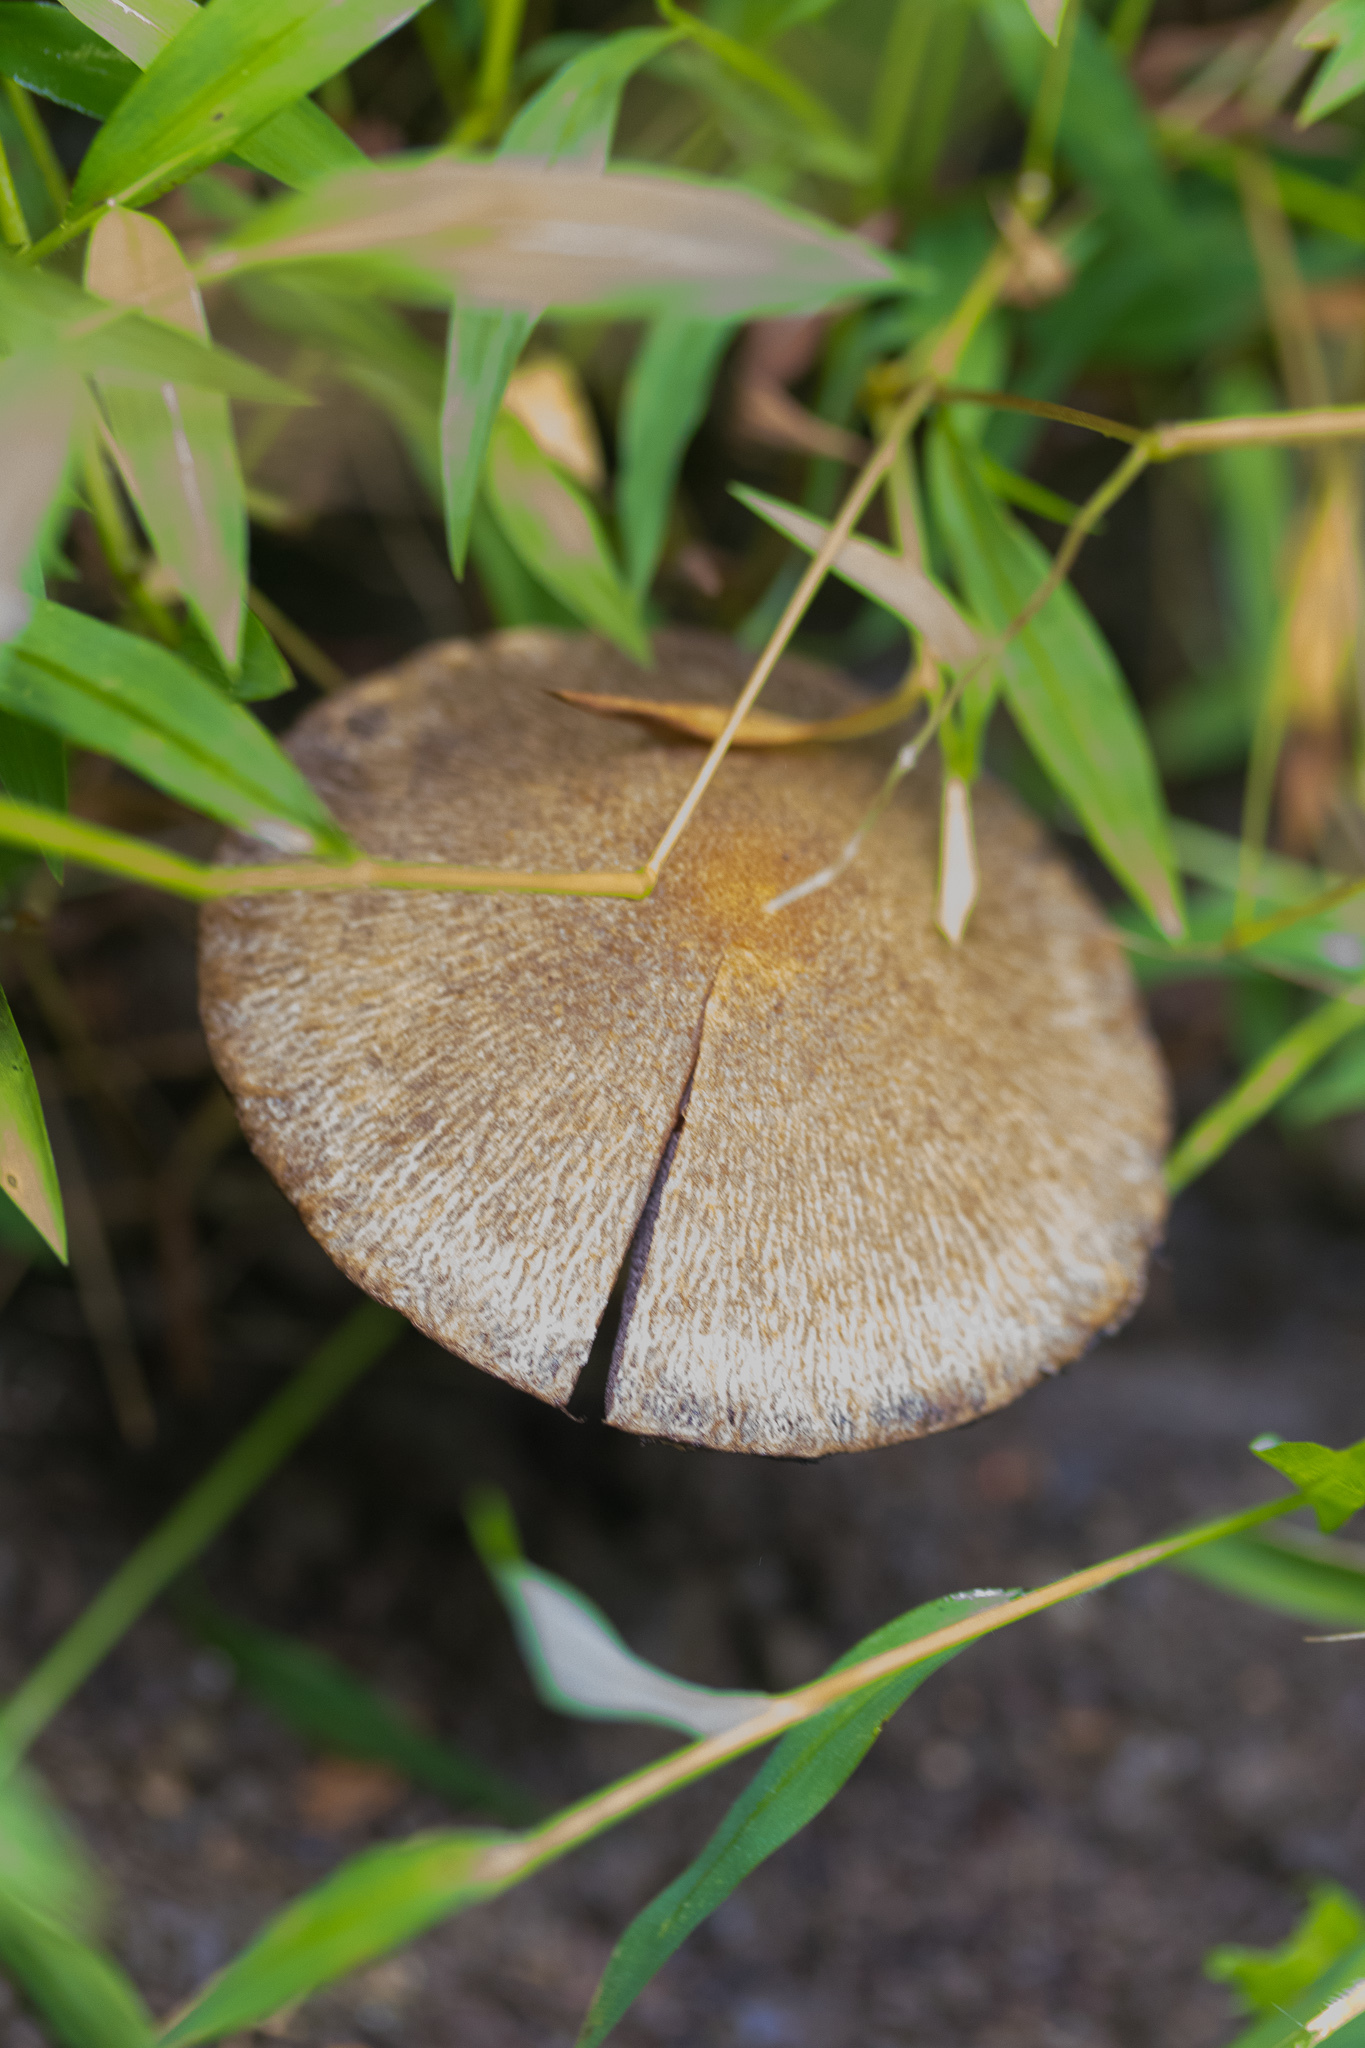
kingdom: Fungi
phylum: Basidiomycota
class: Agaricomycetes
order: Agaricales
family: Psathyrellaceae
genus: Typhrasa
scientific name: Typhrasa gossypina
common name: Wrinkled psathyrella
